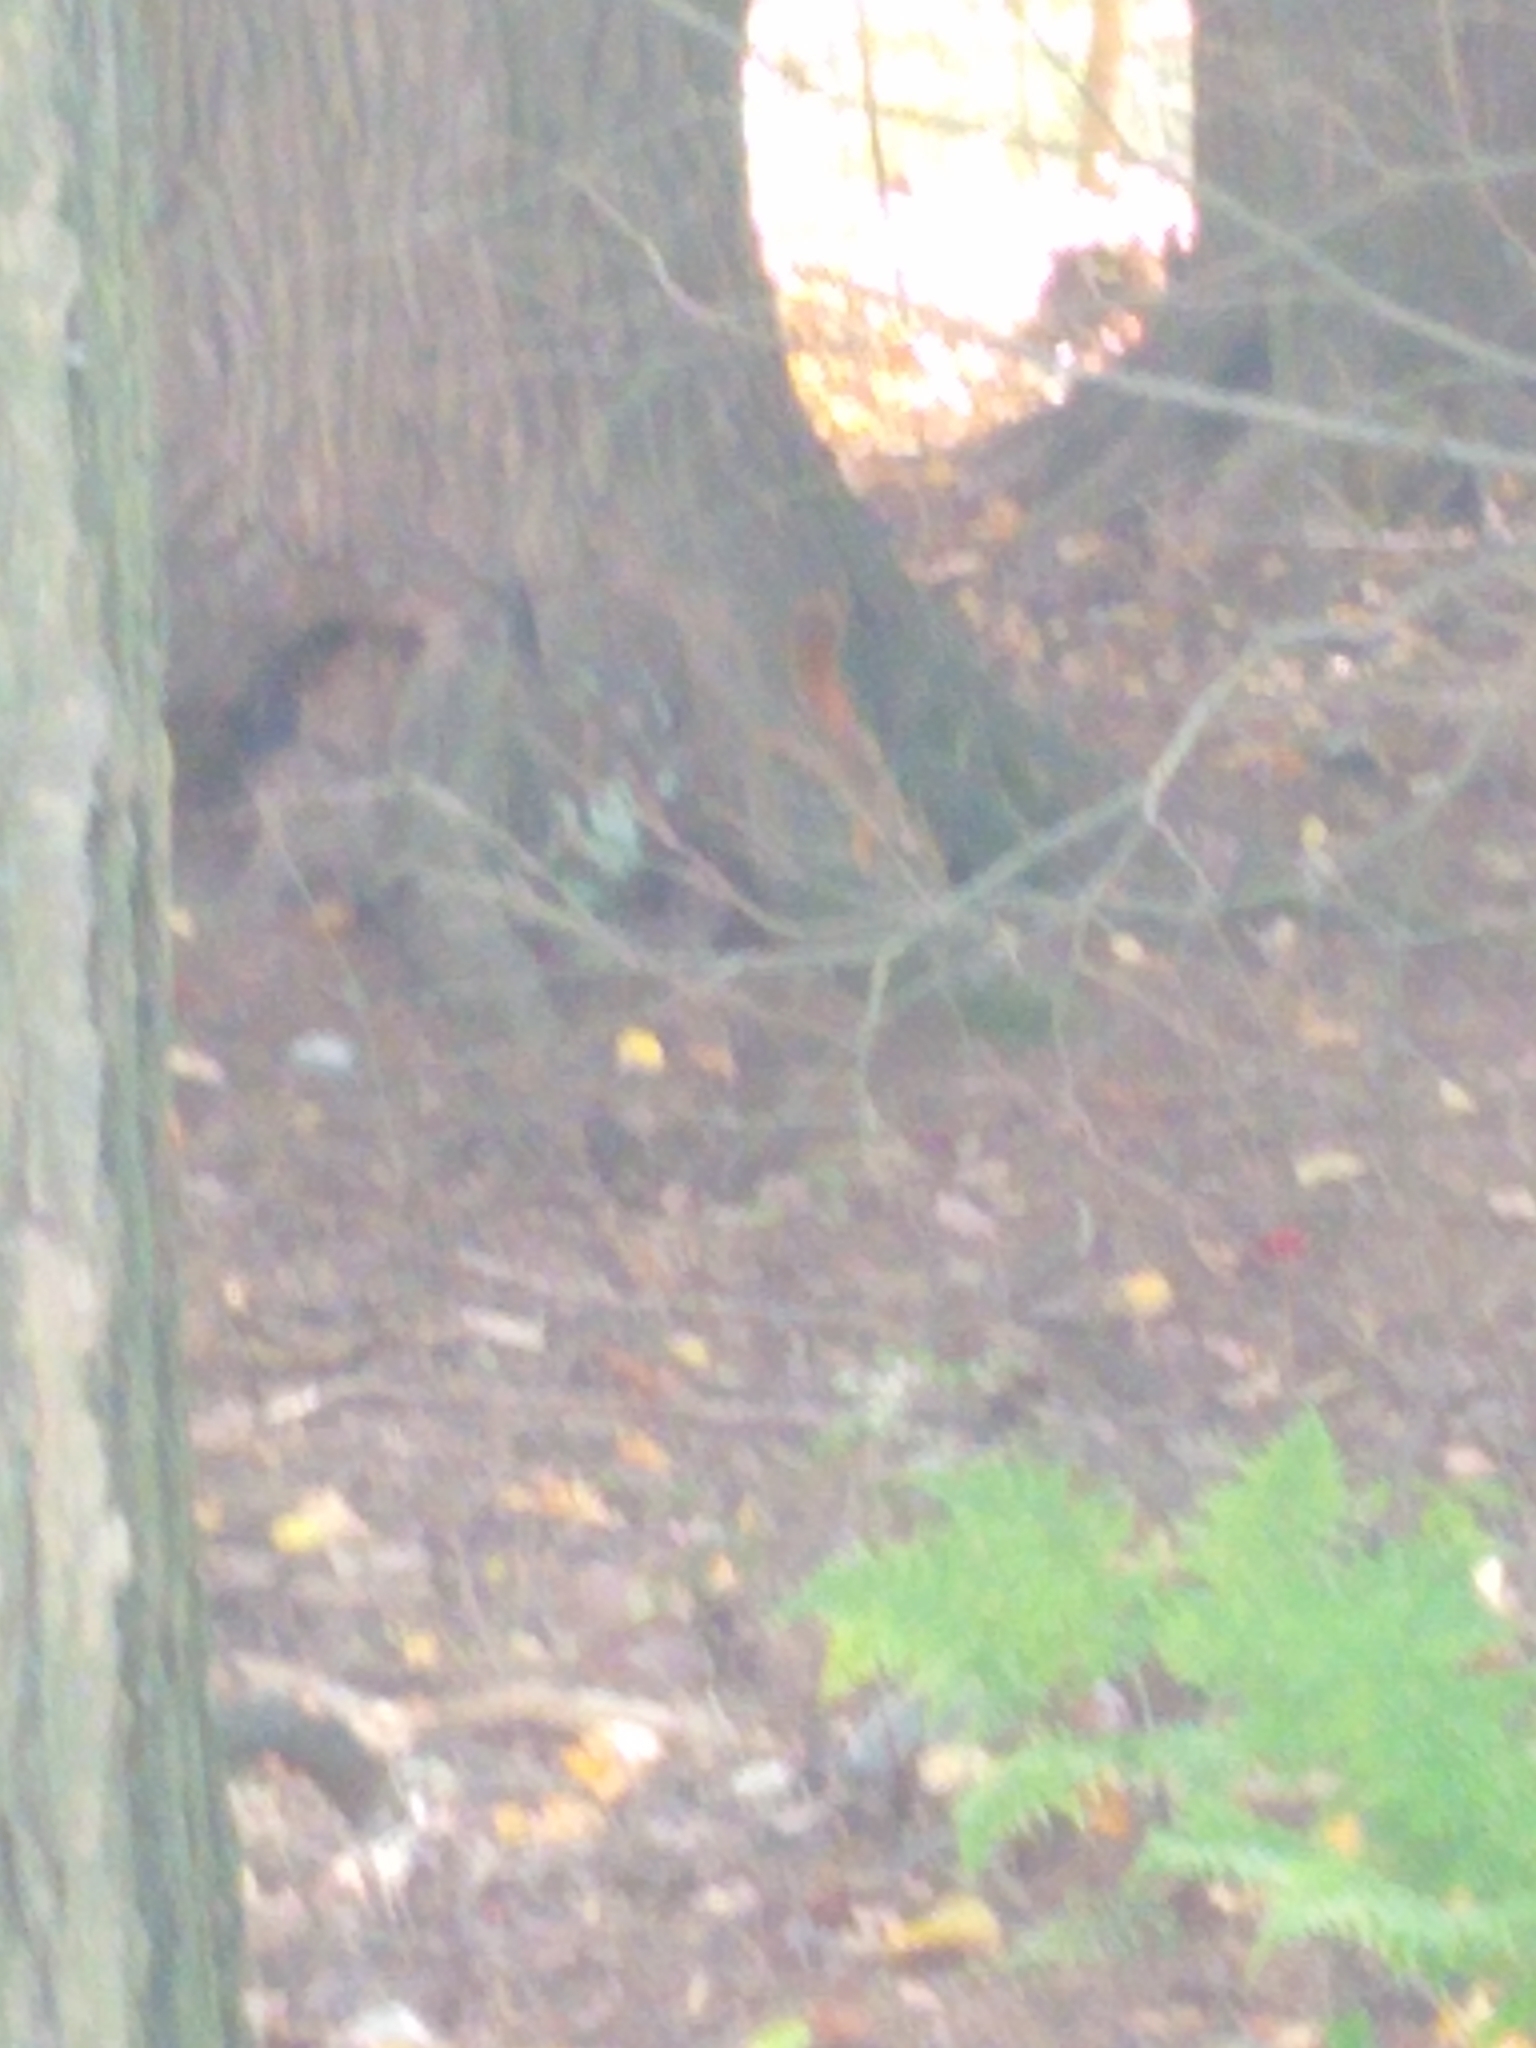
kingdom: Animalia
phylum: Chordata
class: Mammalia
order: Rodentia
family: Sciuridae
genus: Tamiasciurus
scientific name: Tamiasciurus hudsonicus
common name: Red squirrel
